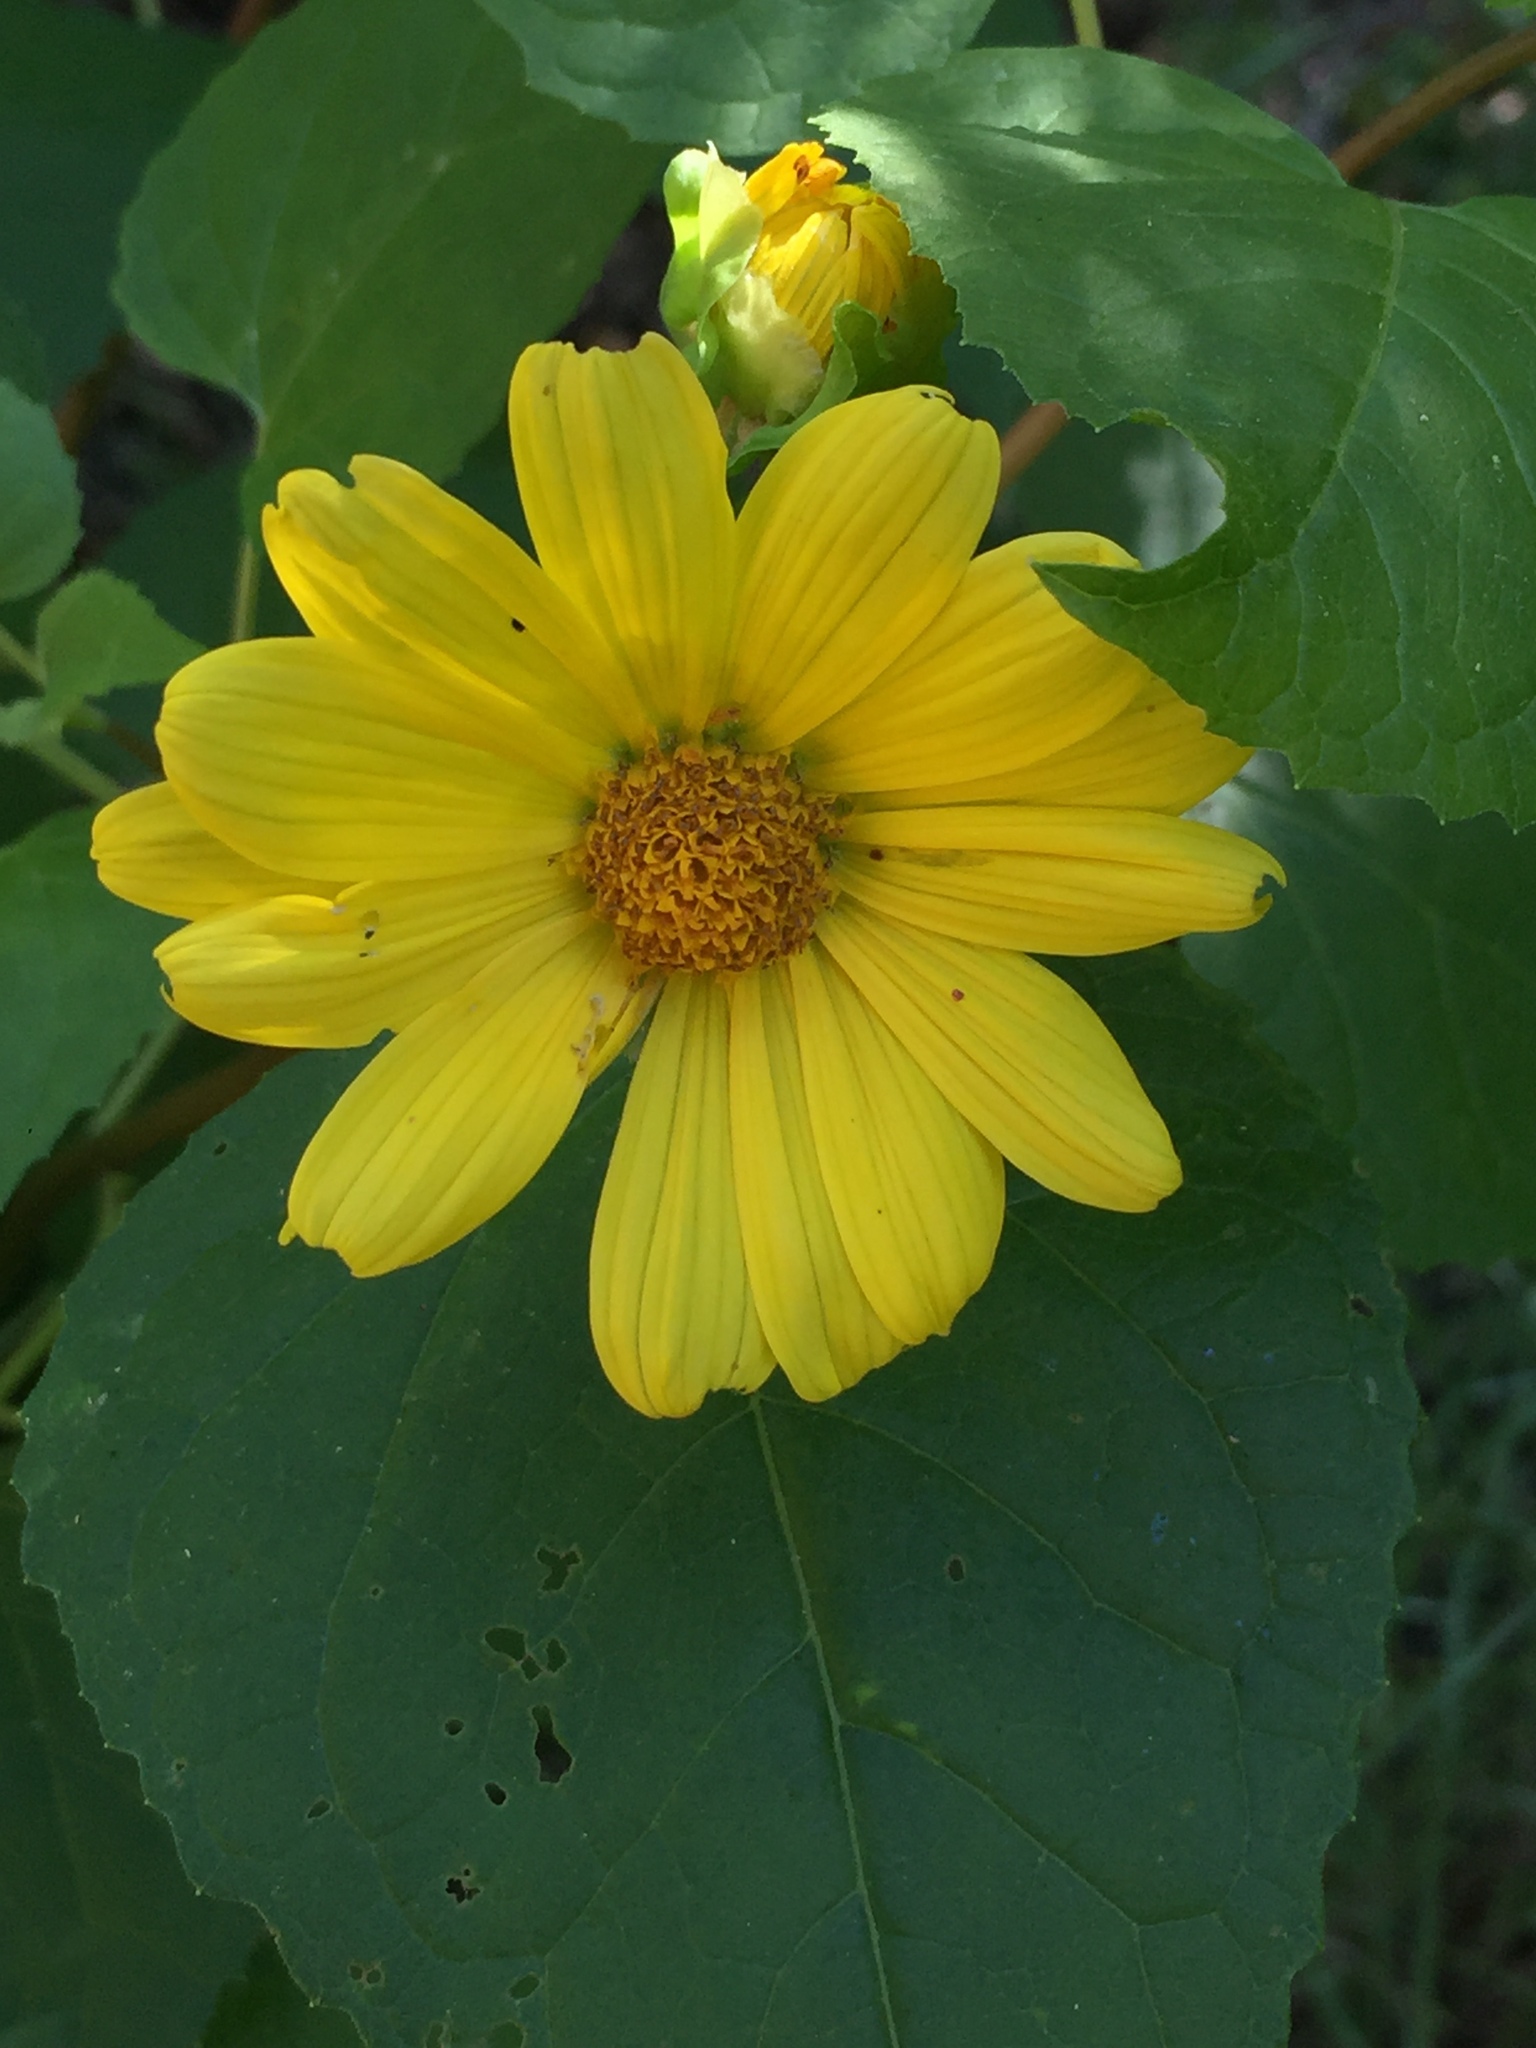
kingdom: Plantae
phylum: Tracheophyta
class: Magnoliopsida
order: Asterales
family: Asteraceae
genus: Venegasia
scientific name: Venegasia carpesioides
